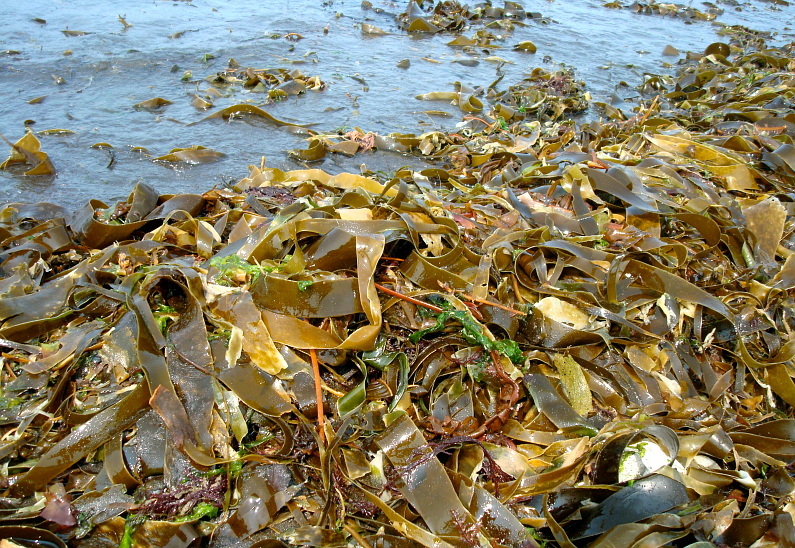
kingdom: Chromista
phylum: Ochrophyta
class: Phaeophyceae
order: Laminariales
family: Laminariaceae
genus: Hedophyllum
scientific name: Hedophyllum
